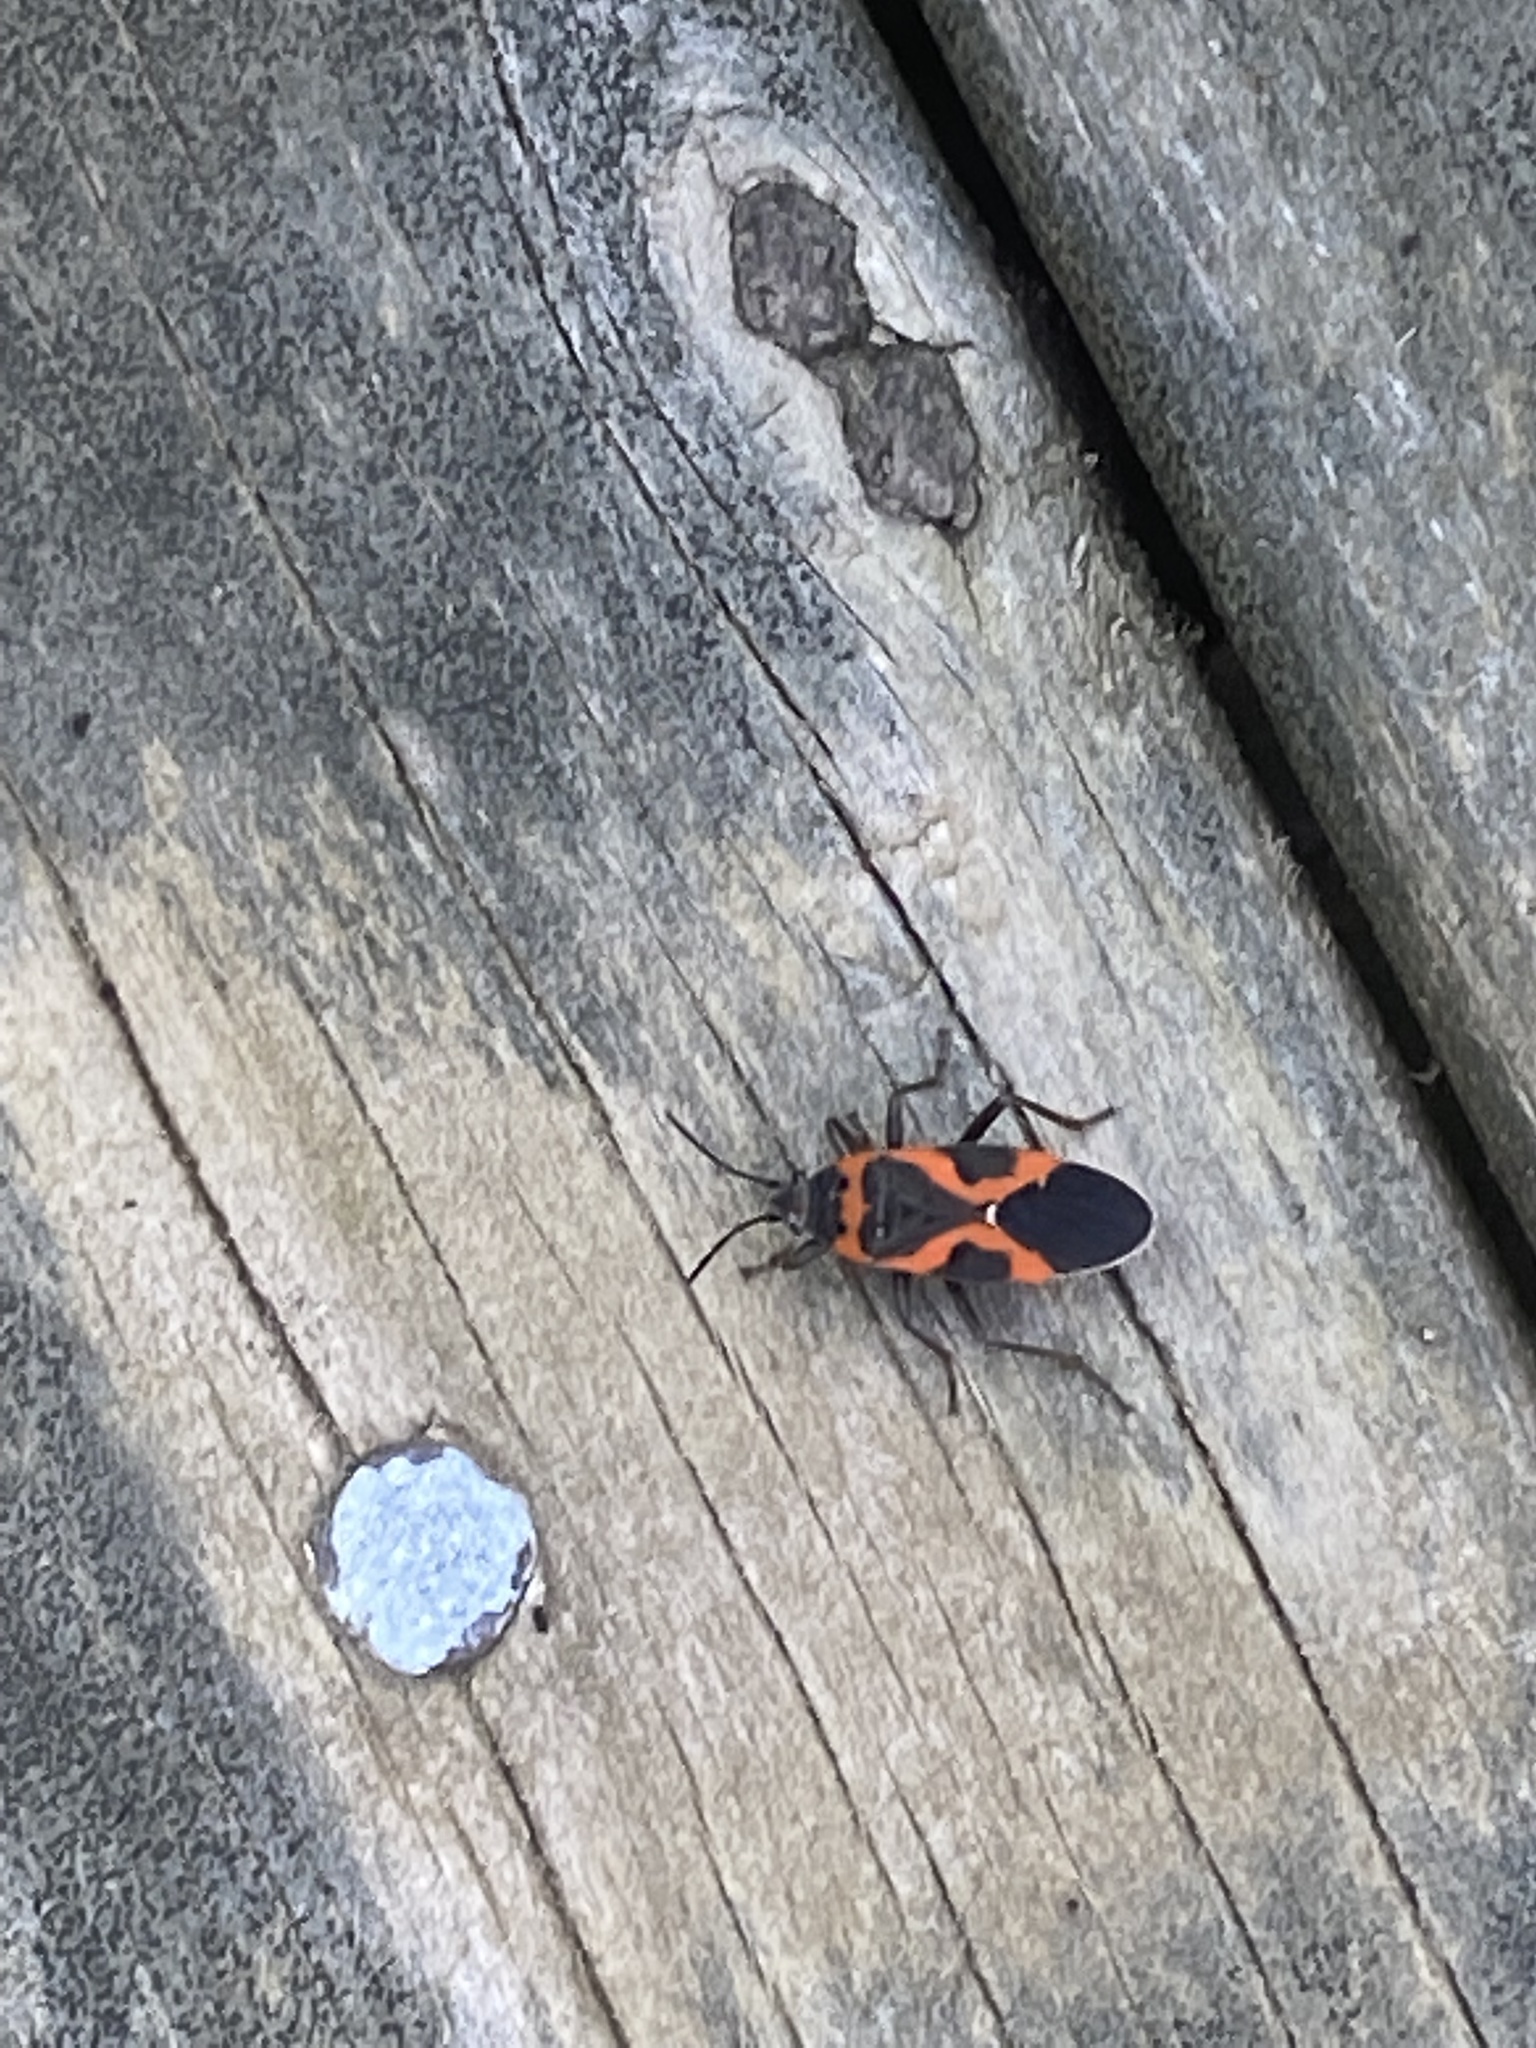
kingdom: Animalia
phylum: Arthropoda
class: Insecta
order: Hemiptera
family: Lygaeidae
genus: Lygaeus
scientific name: Lygaeus kalmii
